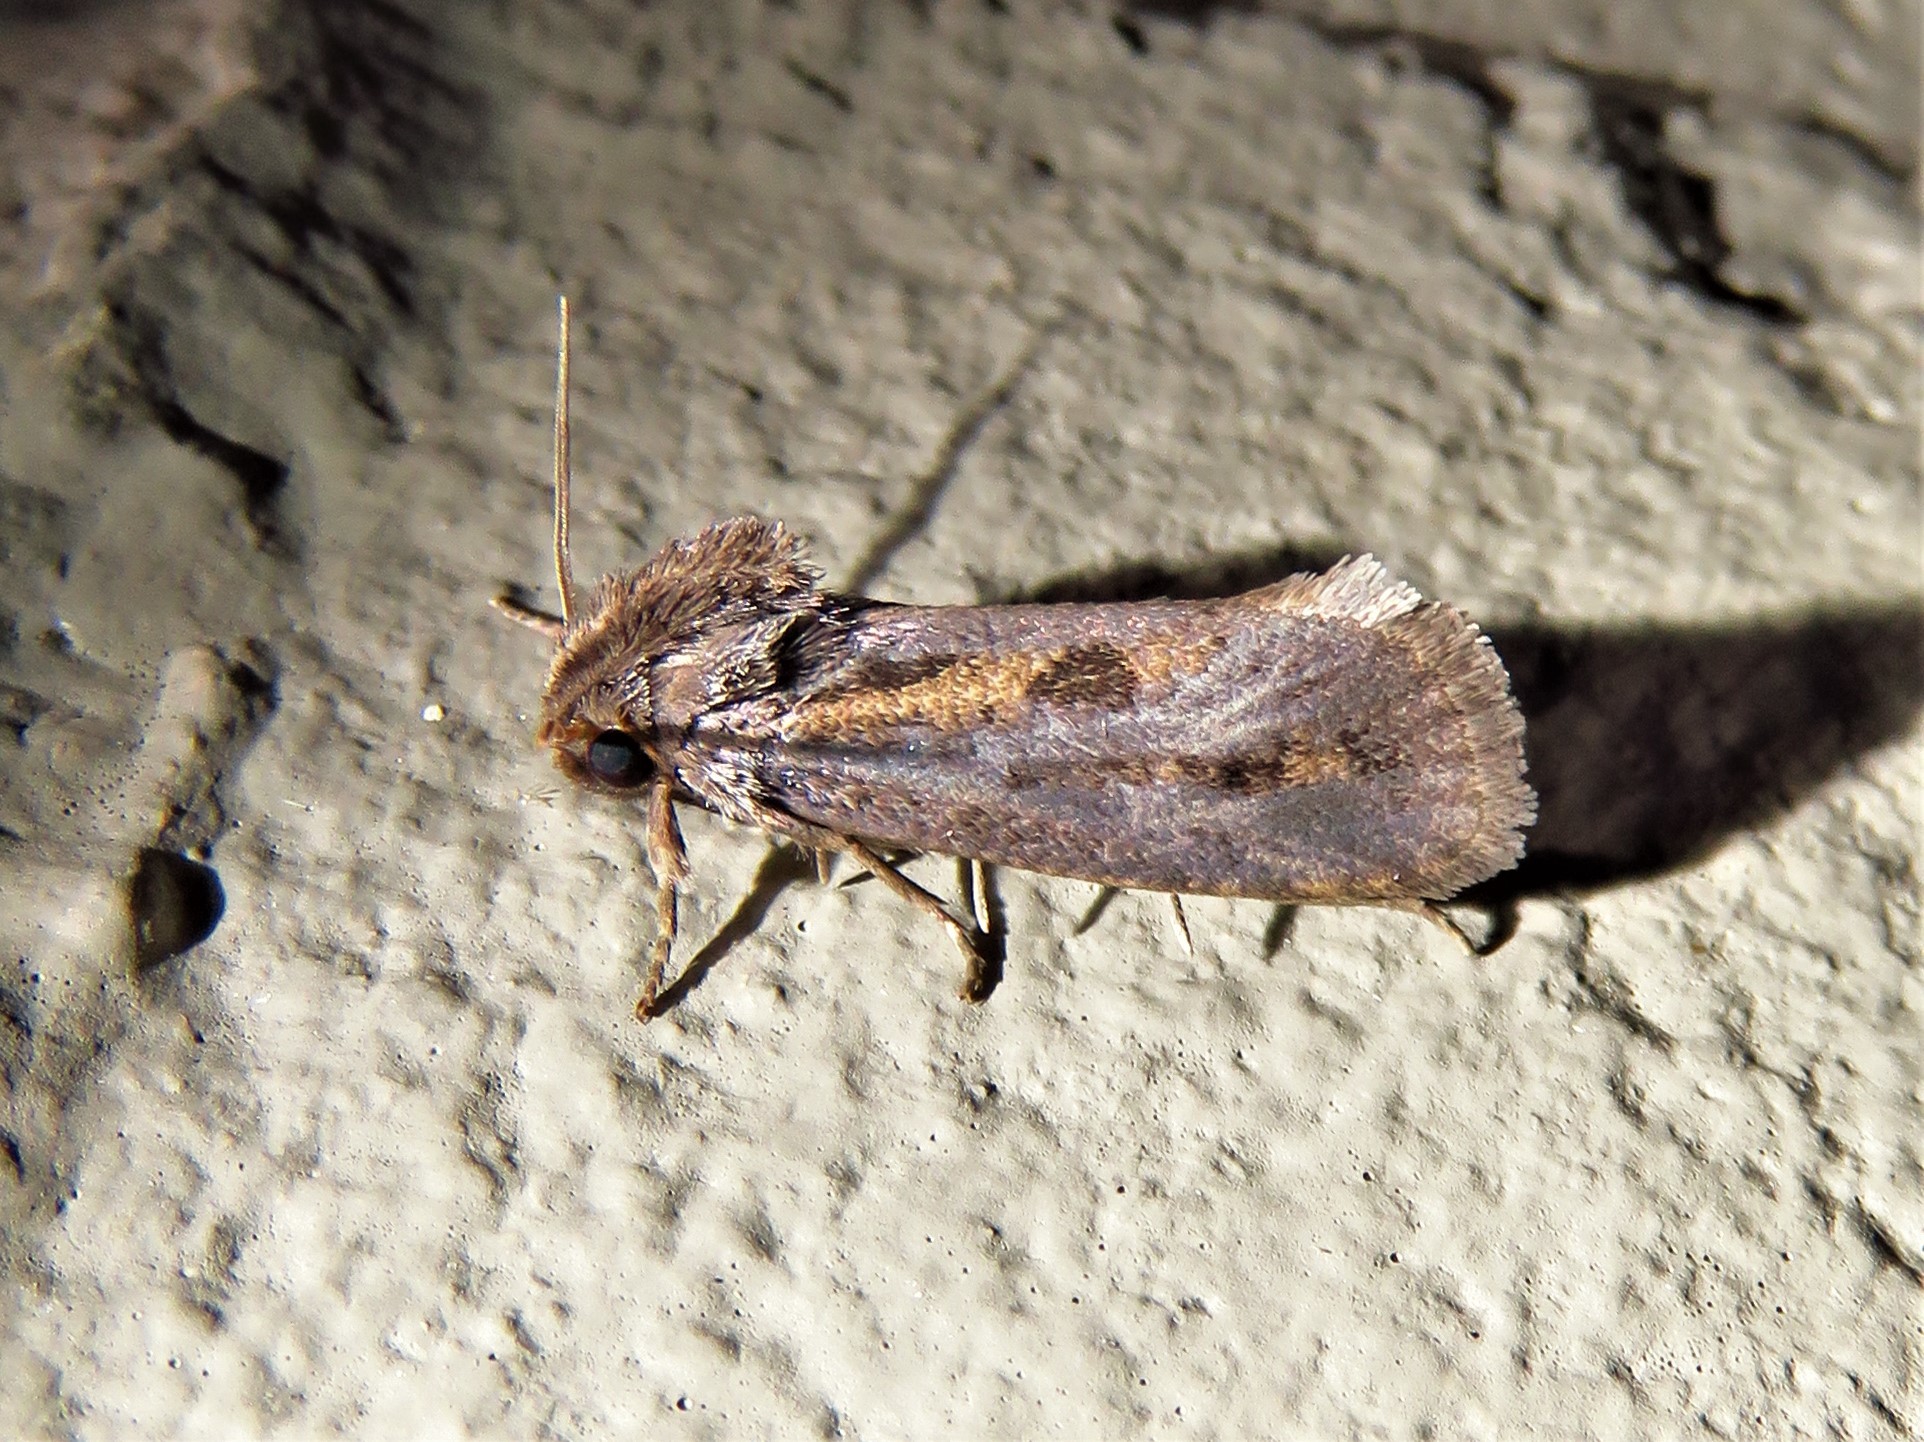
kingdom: Animalia
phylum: Arthropoda
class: Insecta
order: Lepidoptera
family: Tineidae
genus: Acrolophus
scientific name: Acrolophus popeanella
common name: Clemens' grass tubeworm moth
